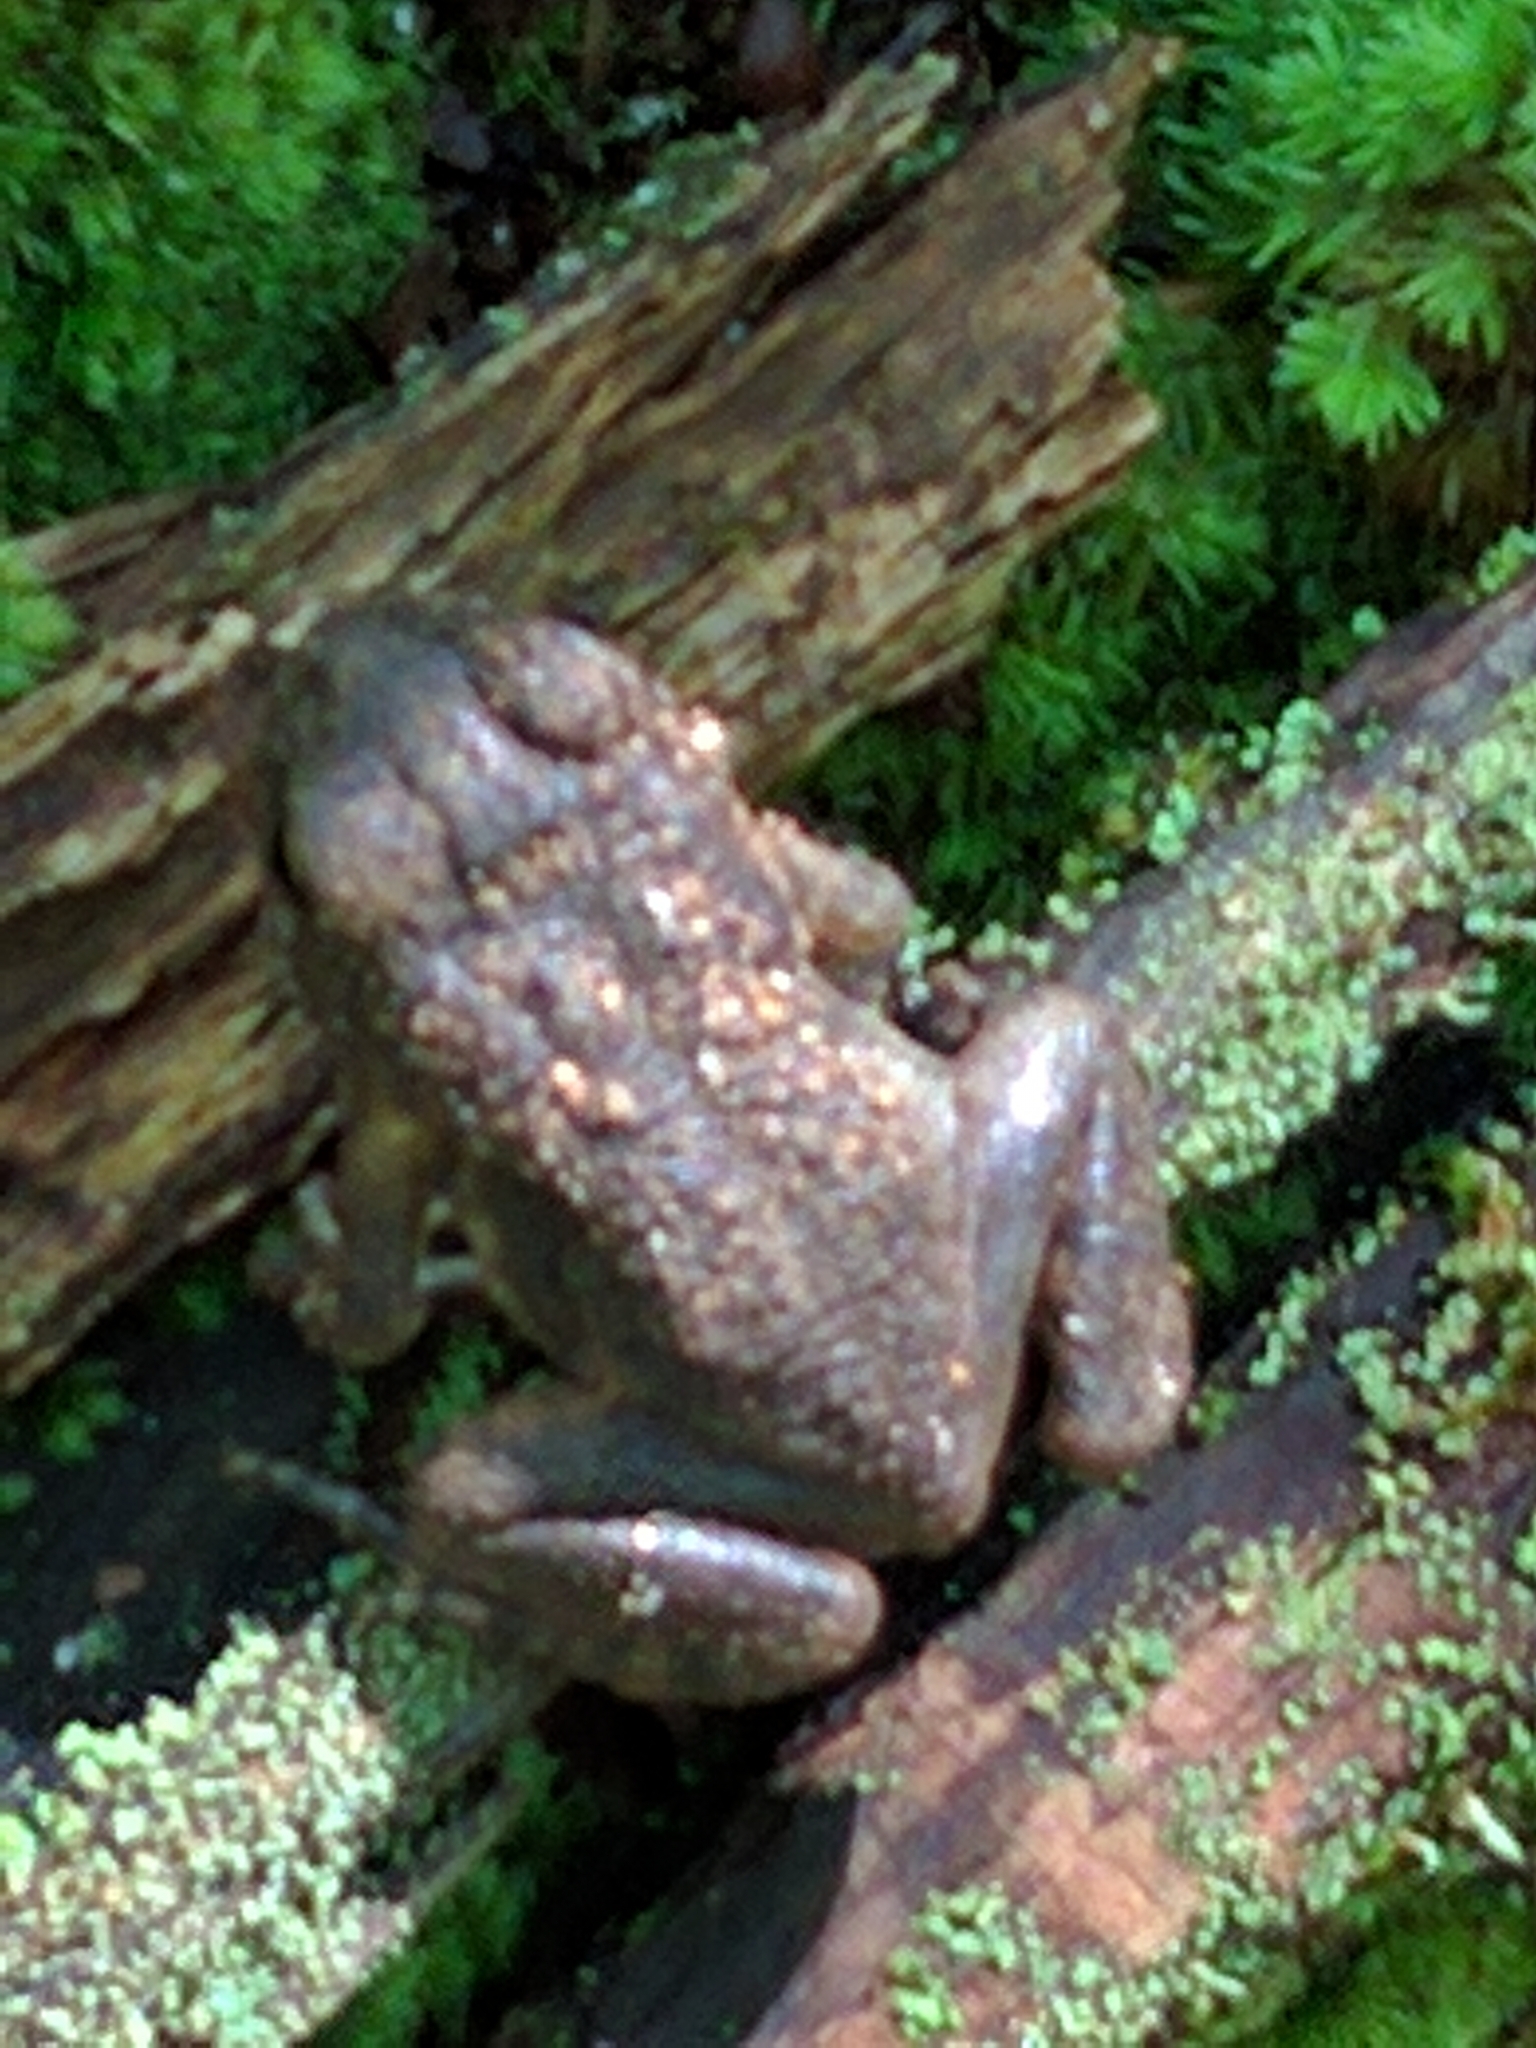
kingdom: Animalia
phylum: Chordata
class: Amphibia
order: Anura
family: Bufonidae
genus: Anaxyrus
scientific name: Anaxyrus americanus
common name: American toad
